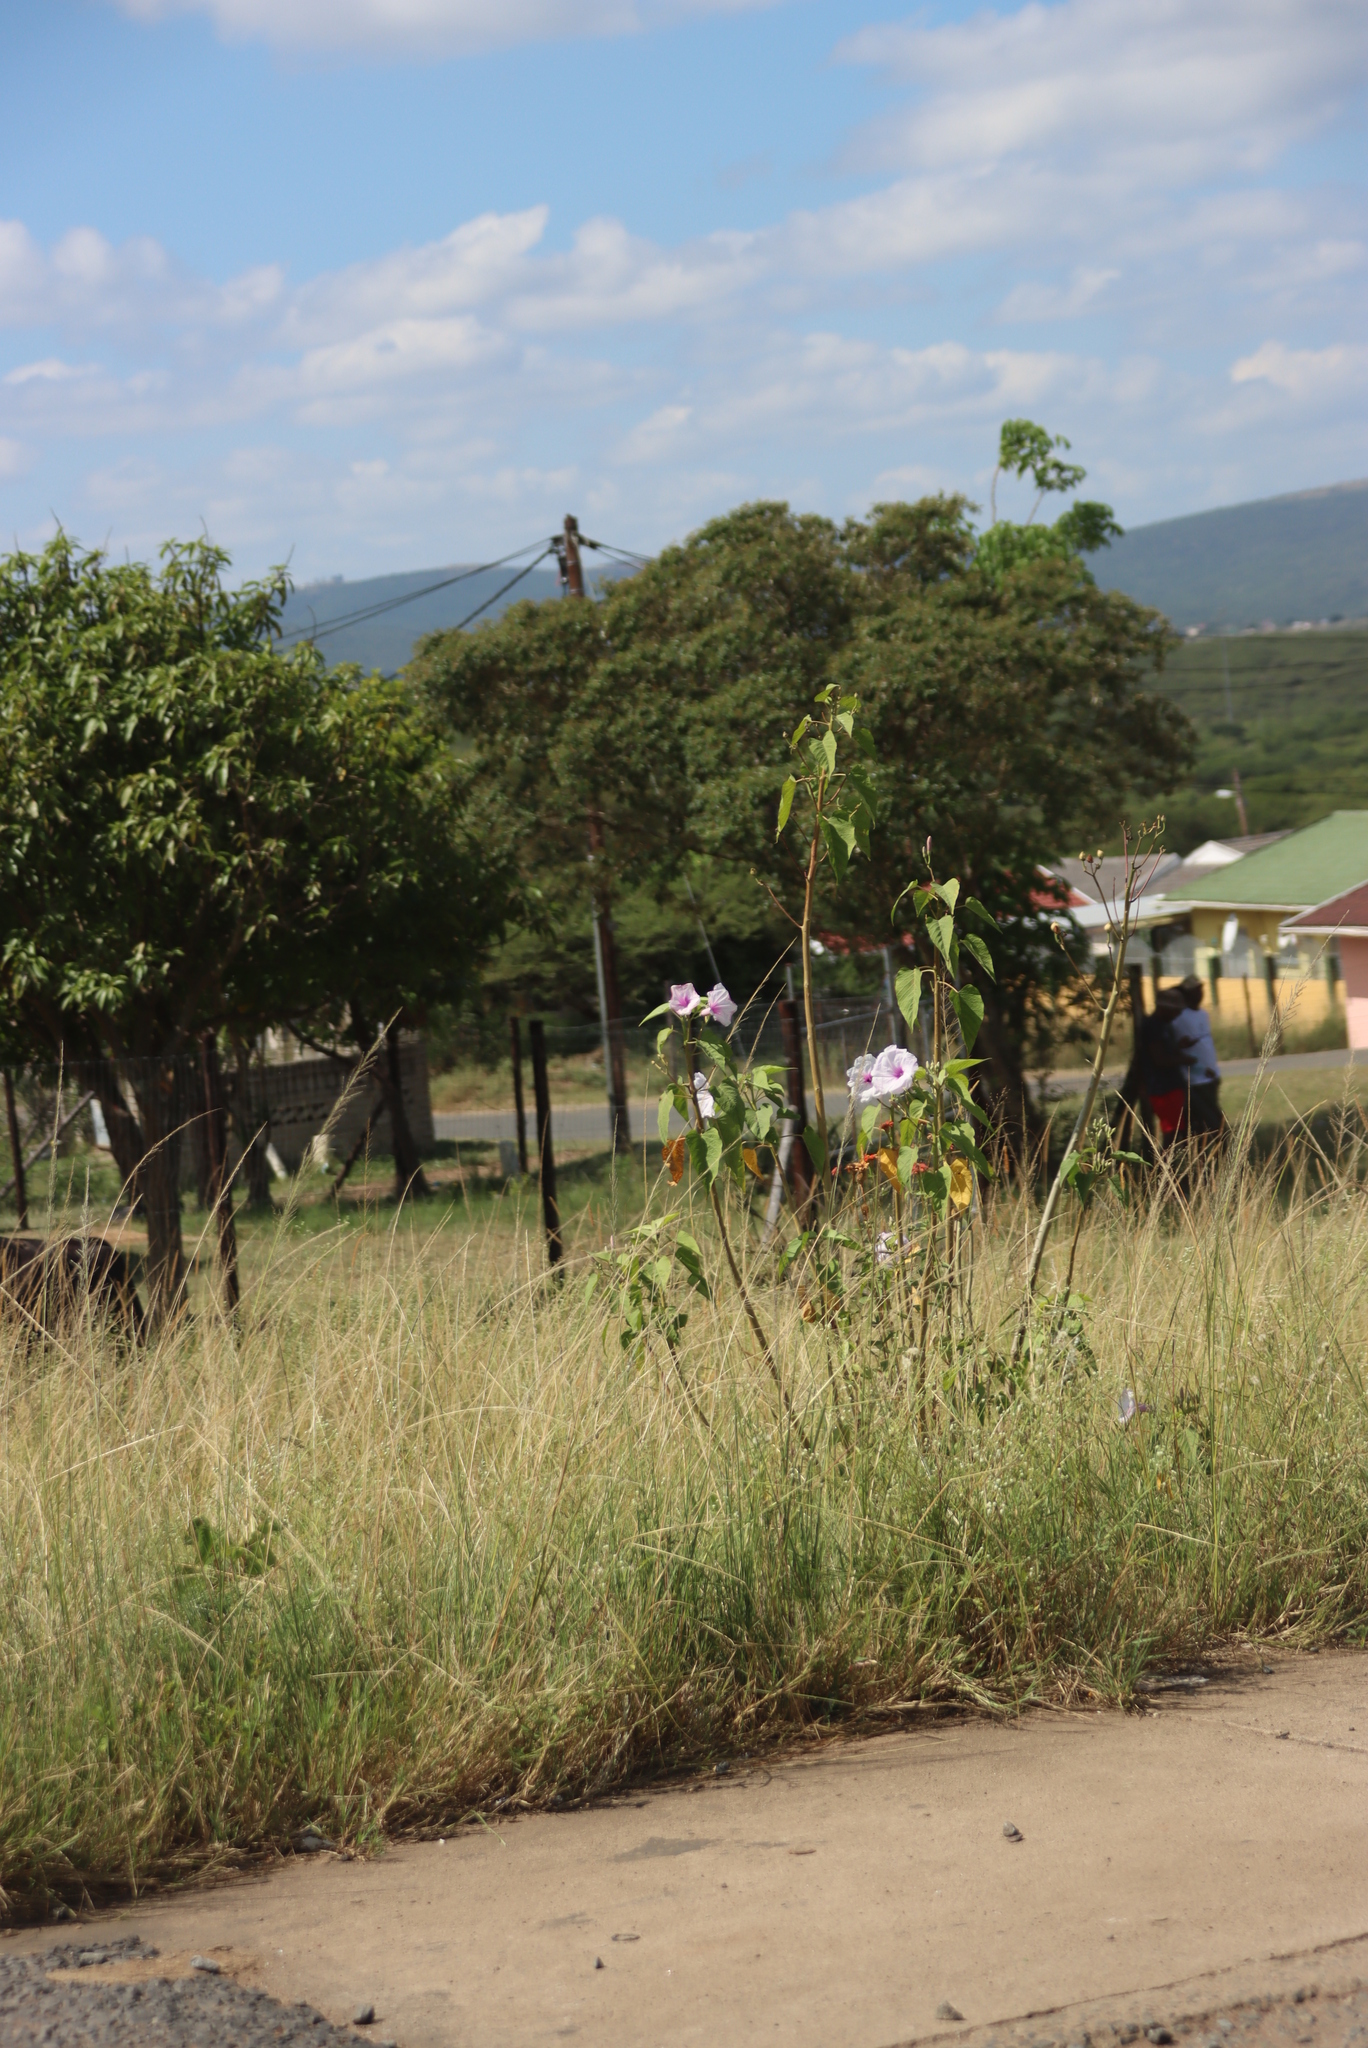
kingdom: Plantae
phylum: Tracheophyta
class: Magnoliopsida
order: Solanales
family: Convolvulaceae
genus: Ipomoea
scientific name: Ipomoea carnea
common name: Morning-glory
